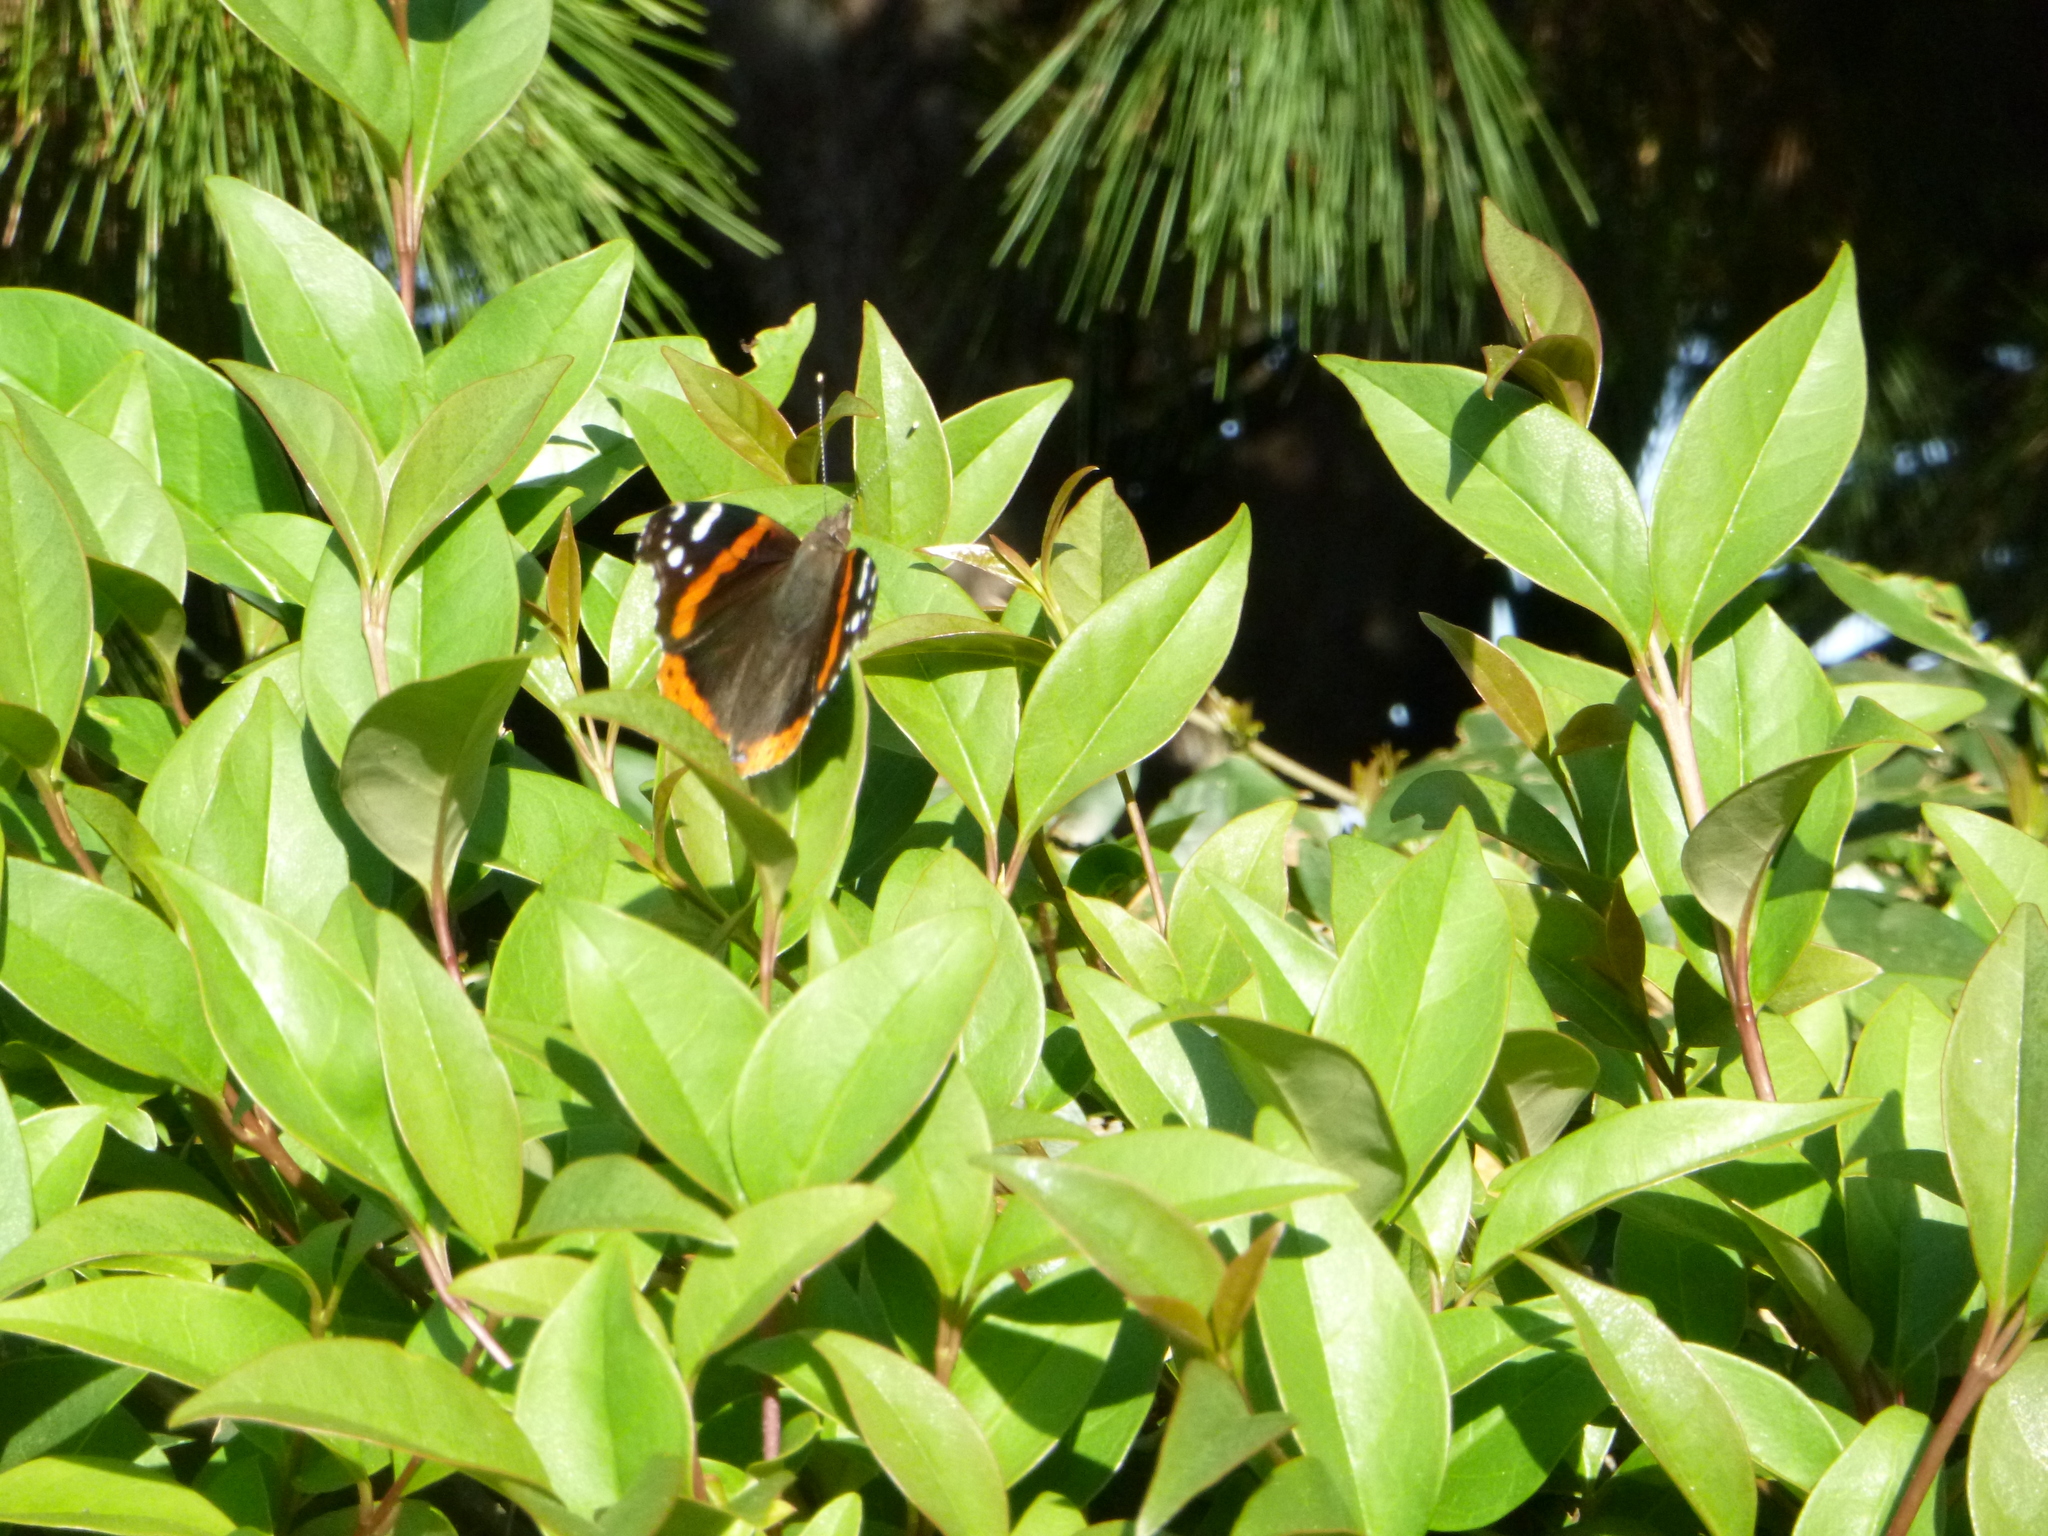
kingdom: Animalia
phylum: Arthropoda
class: Insecta
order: Lepidoptera
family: Nymphalidae
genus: Vanessa
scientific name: Vanessa atalanta
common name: Red admiral
